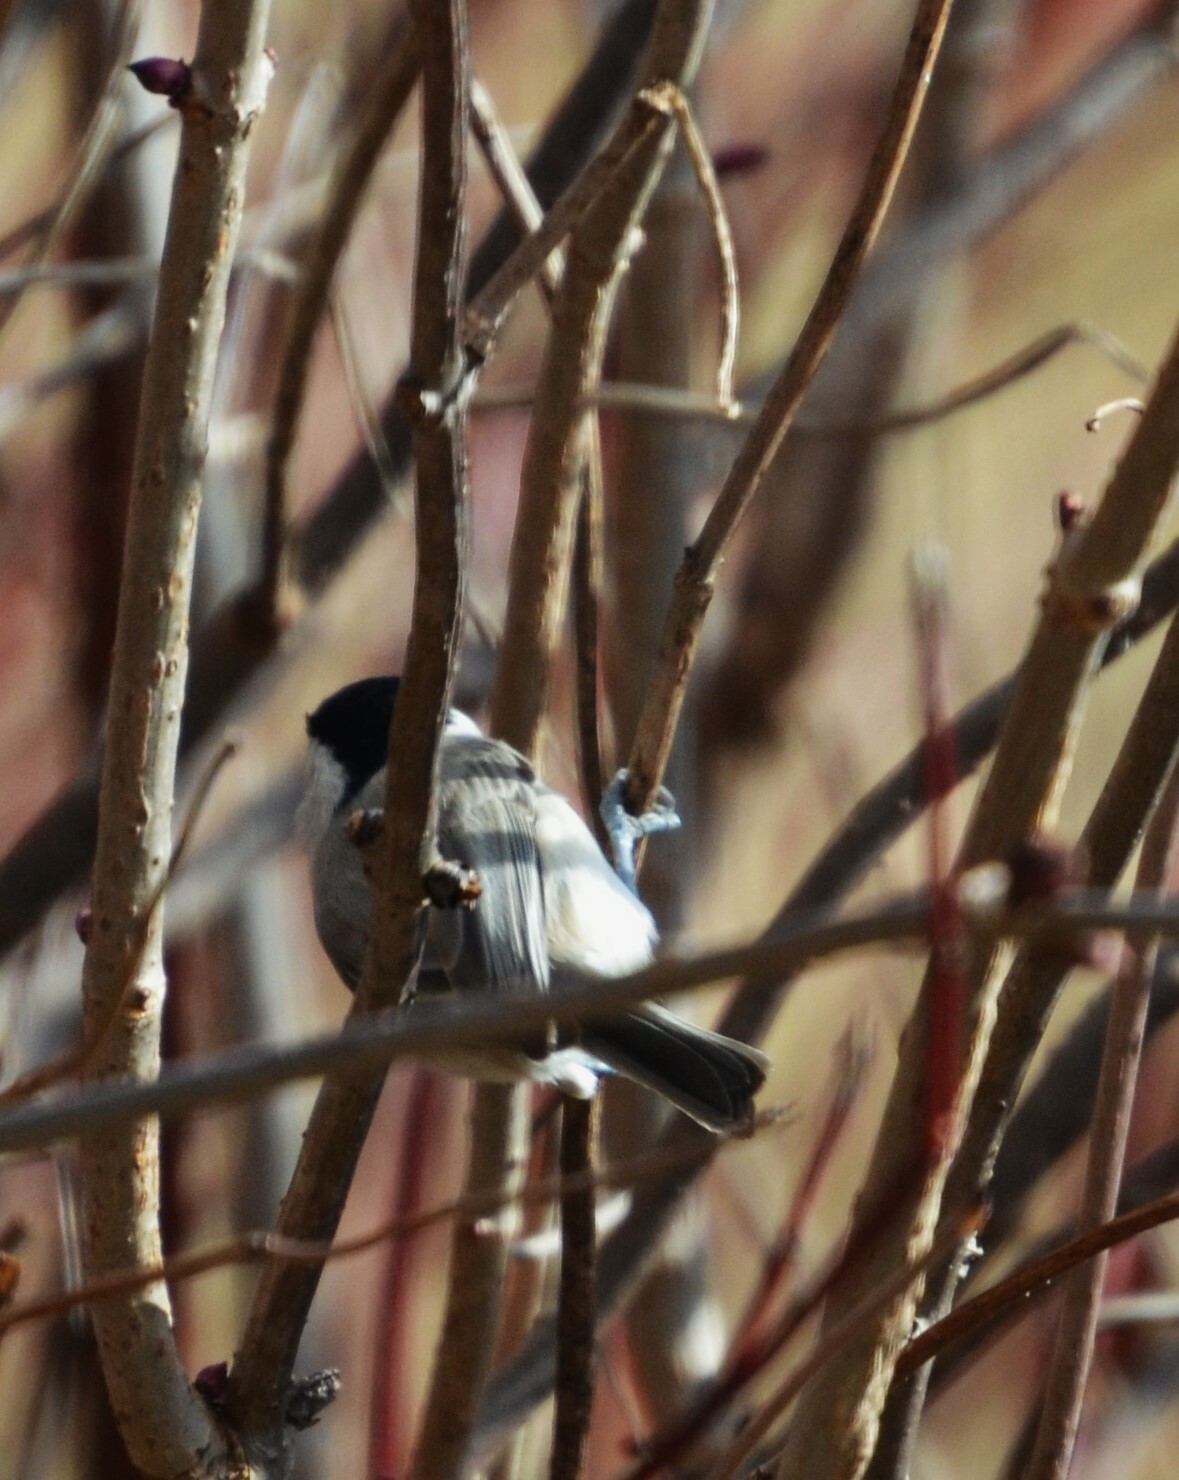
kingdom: Animalia
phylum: Chordata
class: Aves
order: Passeriformes
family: Paridae
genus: Poecile
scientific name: Poecile palustris
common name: Marsh tit
